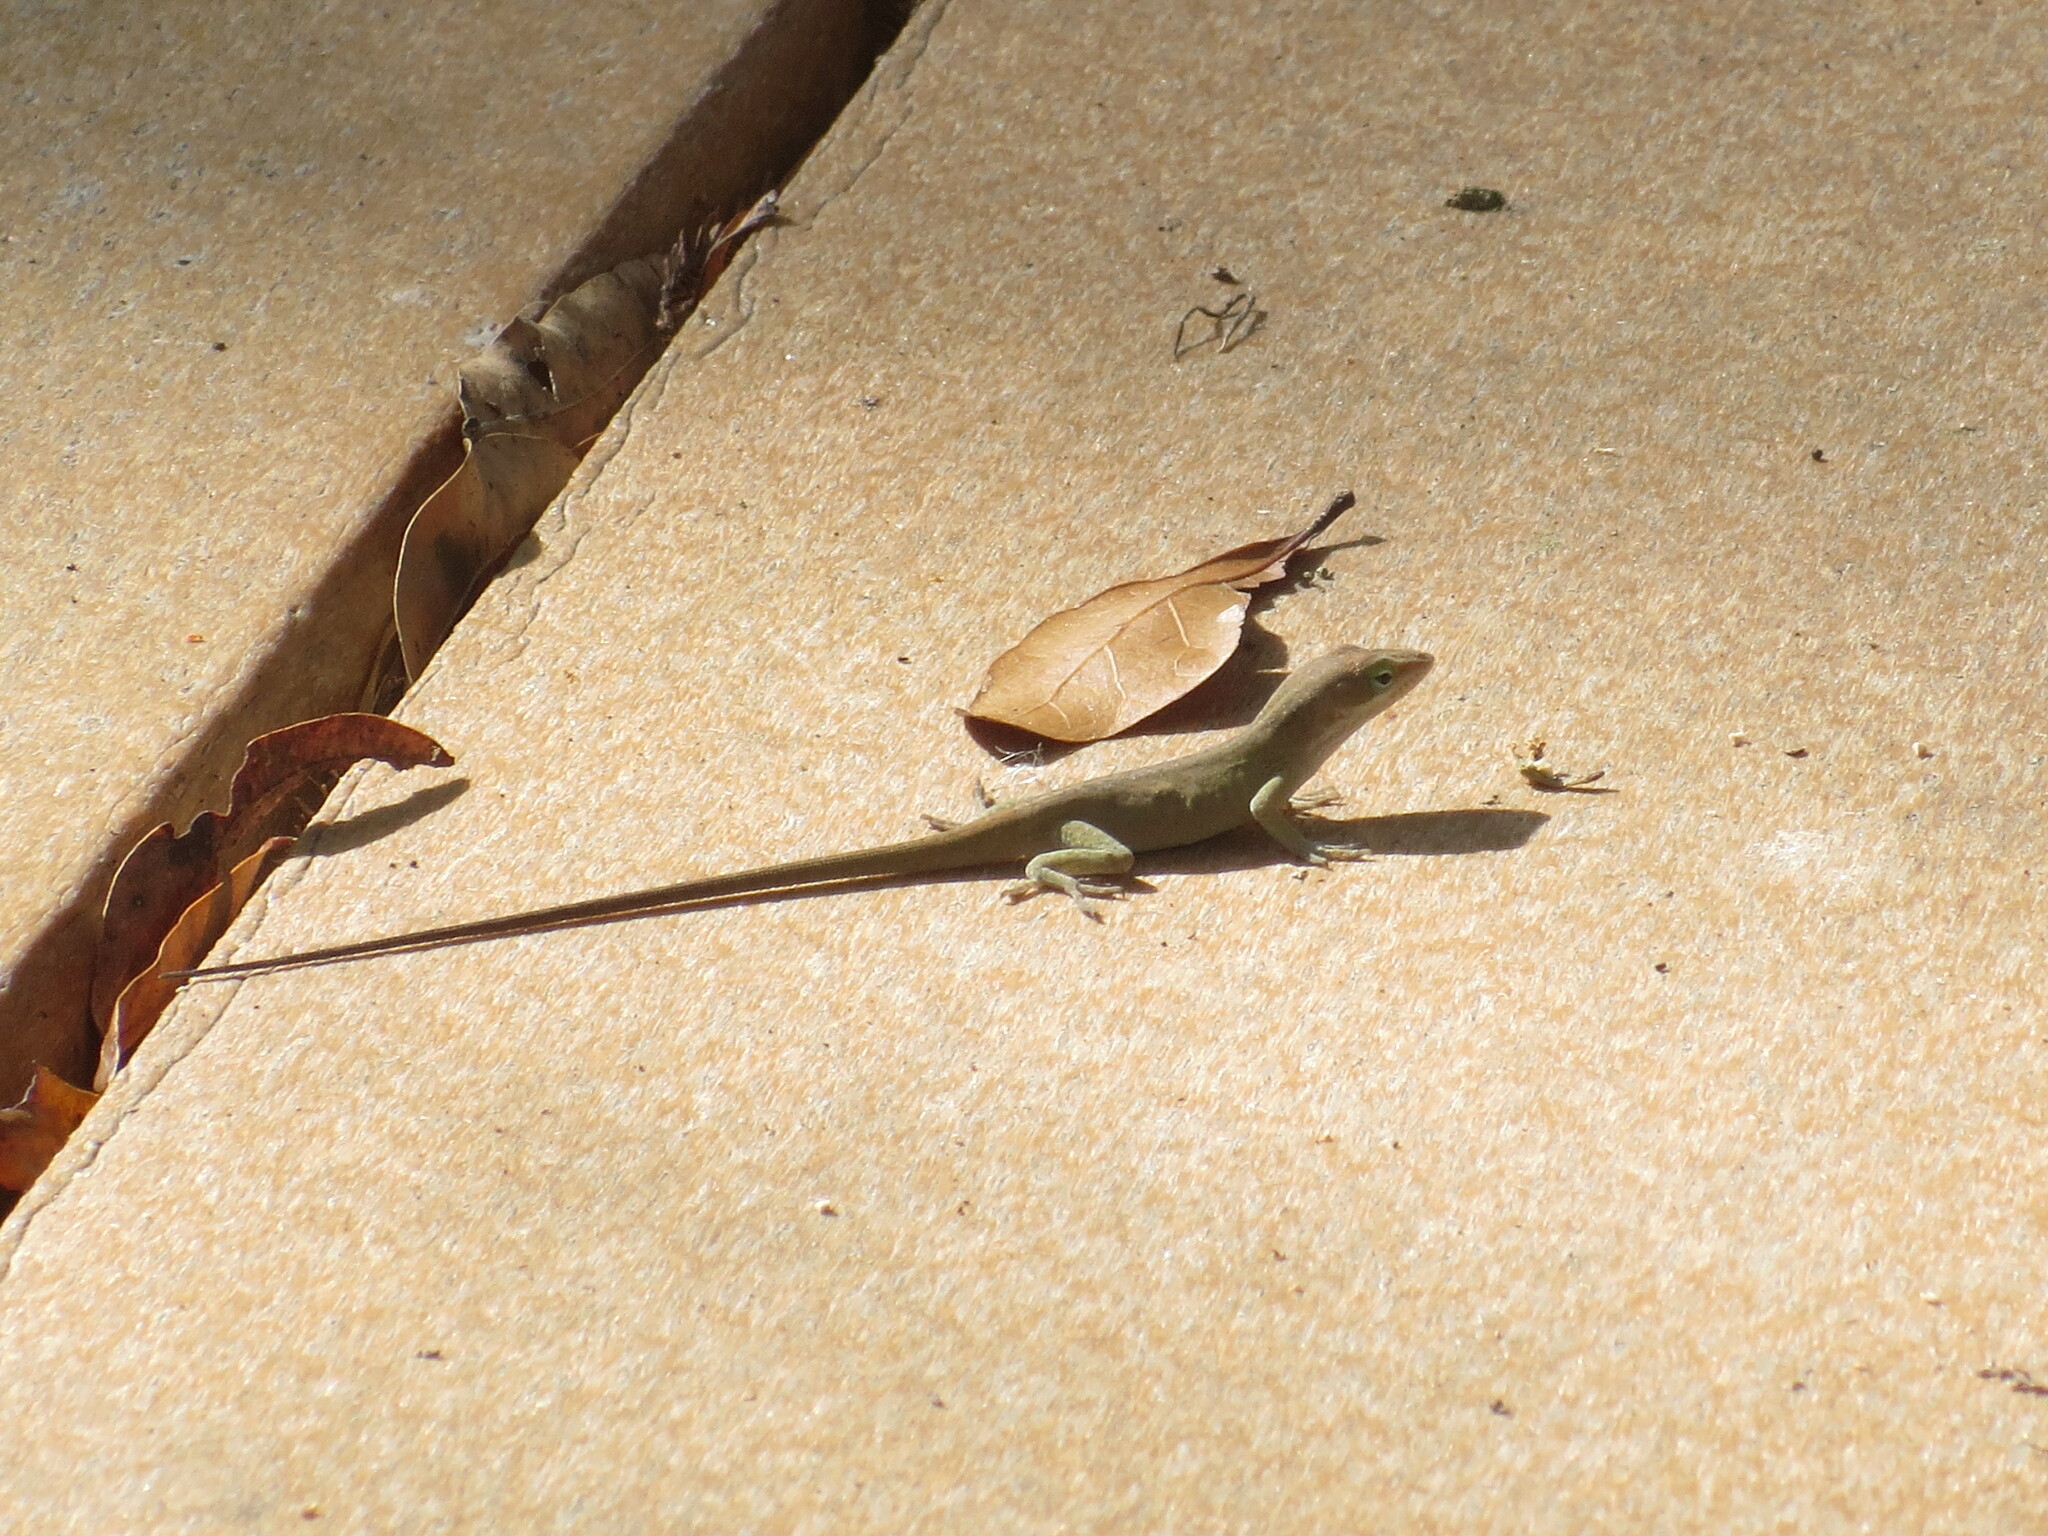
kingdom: Animalia
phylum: Chordata
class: Squamata
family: Dactyloidae
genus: Anolis
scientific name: Anolis carolinensis
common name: Green anole
